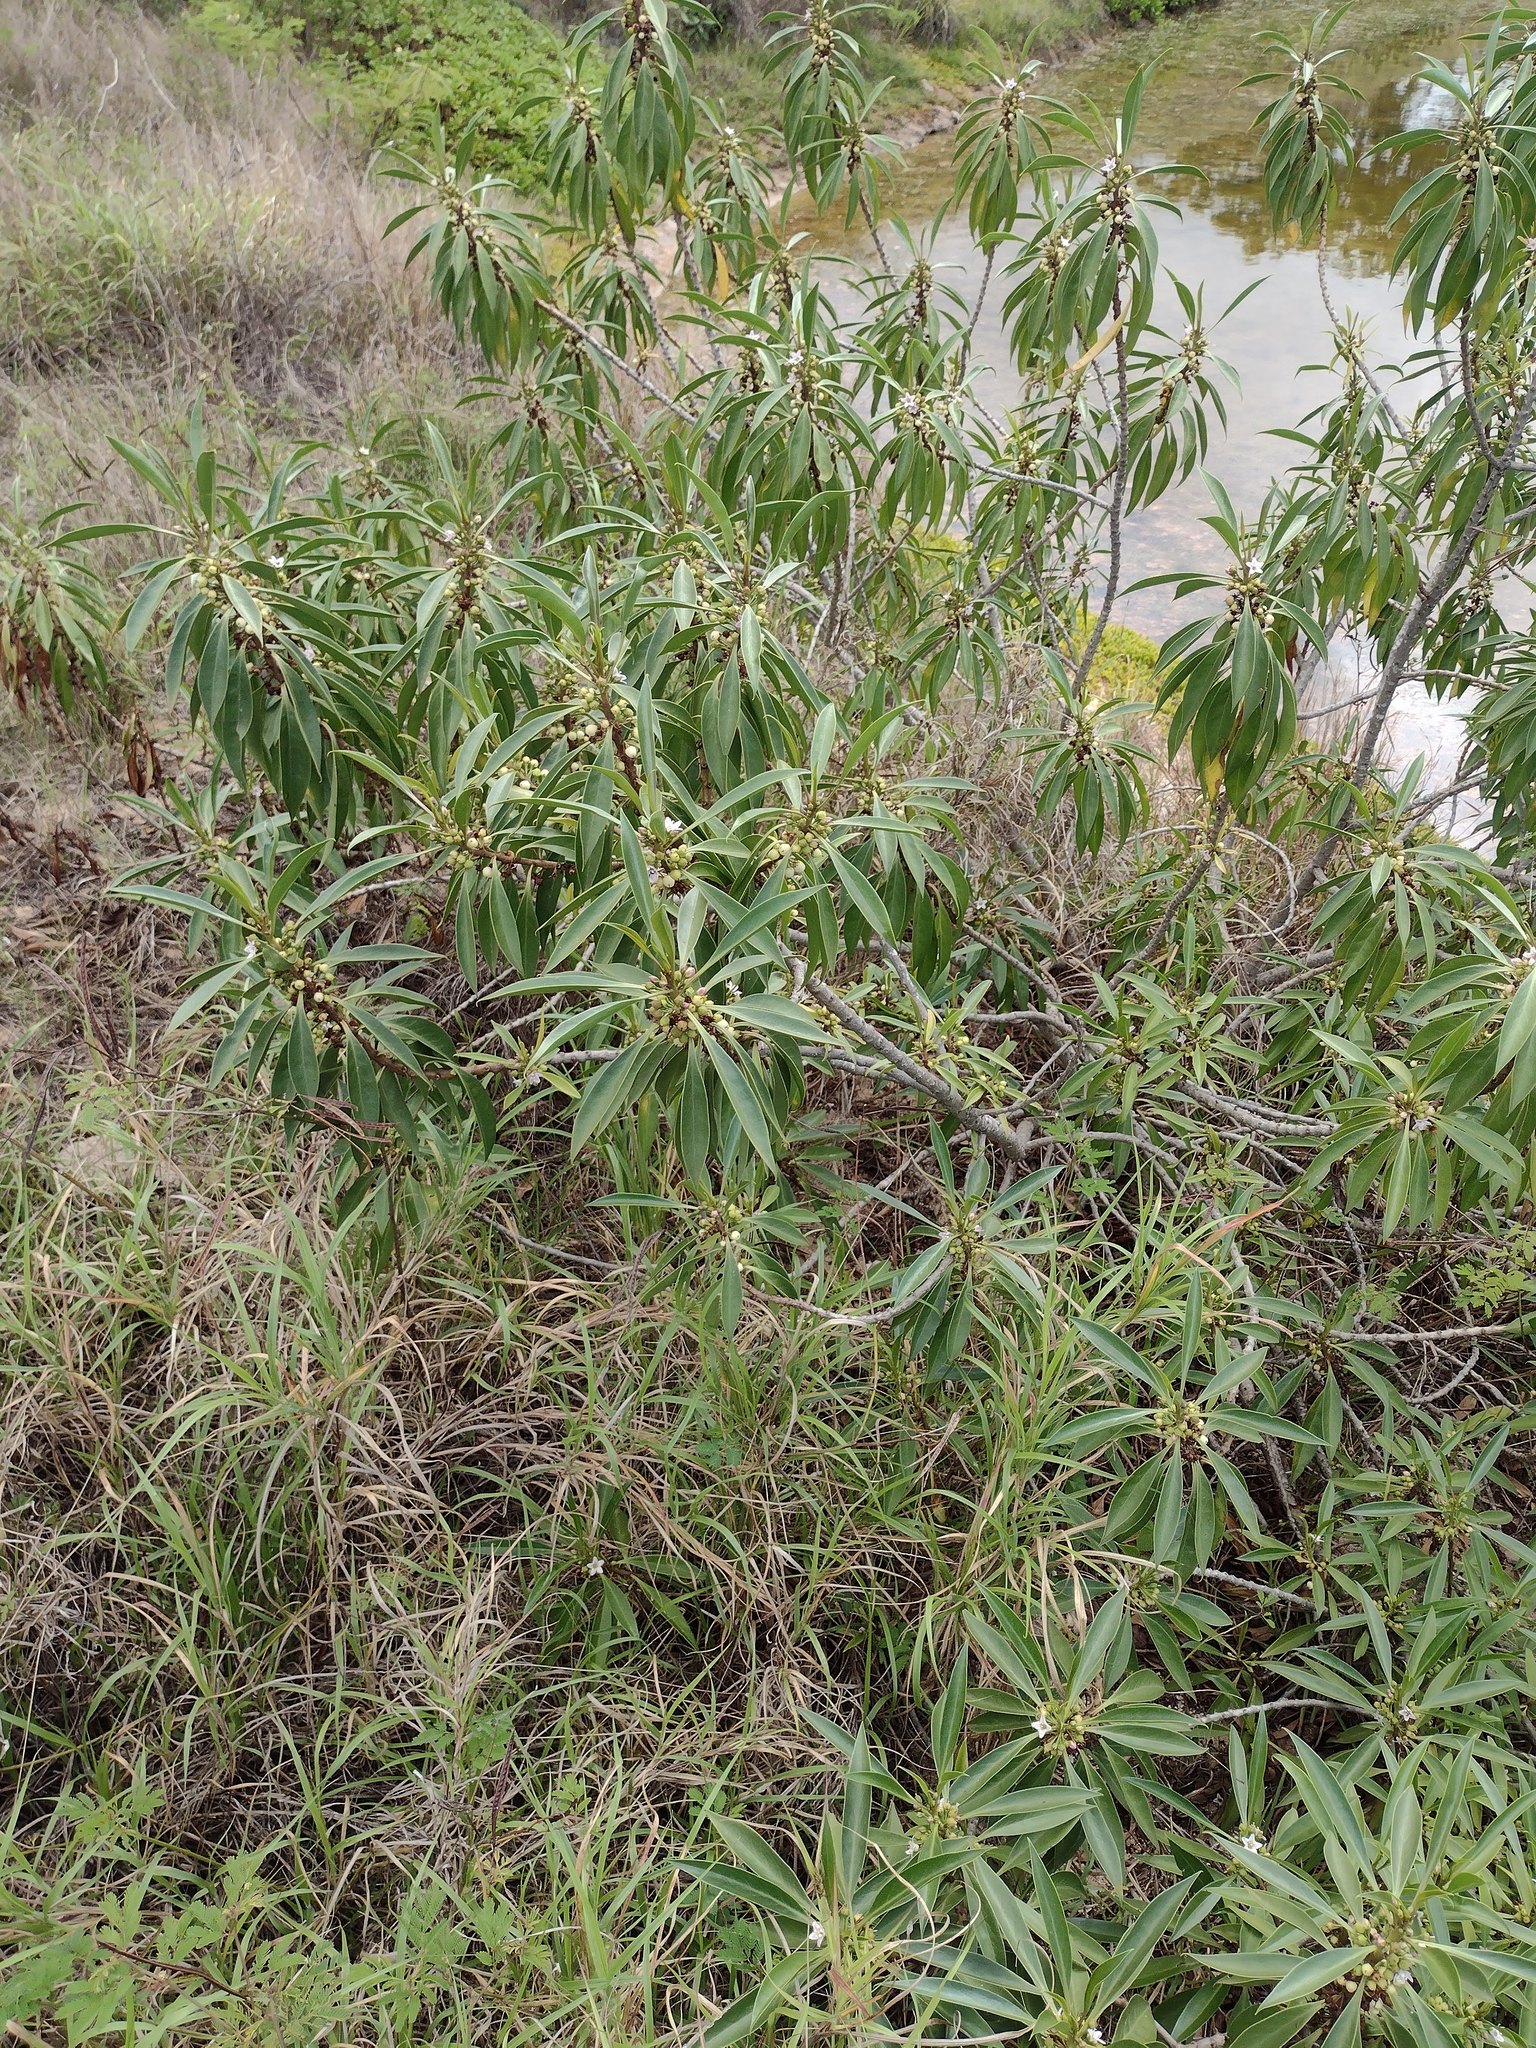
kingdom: Plantae
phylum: Tracheophyta
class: Magnoliopsida
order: Lamiales
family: Scrophulariaceae
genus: Myoporum
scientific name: Myoporum sandwicense
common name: Bastard-sandalwood
